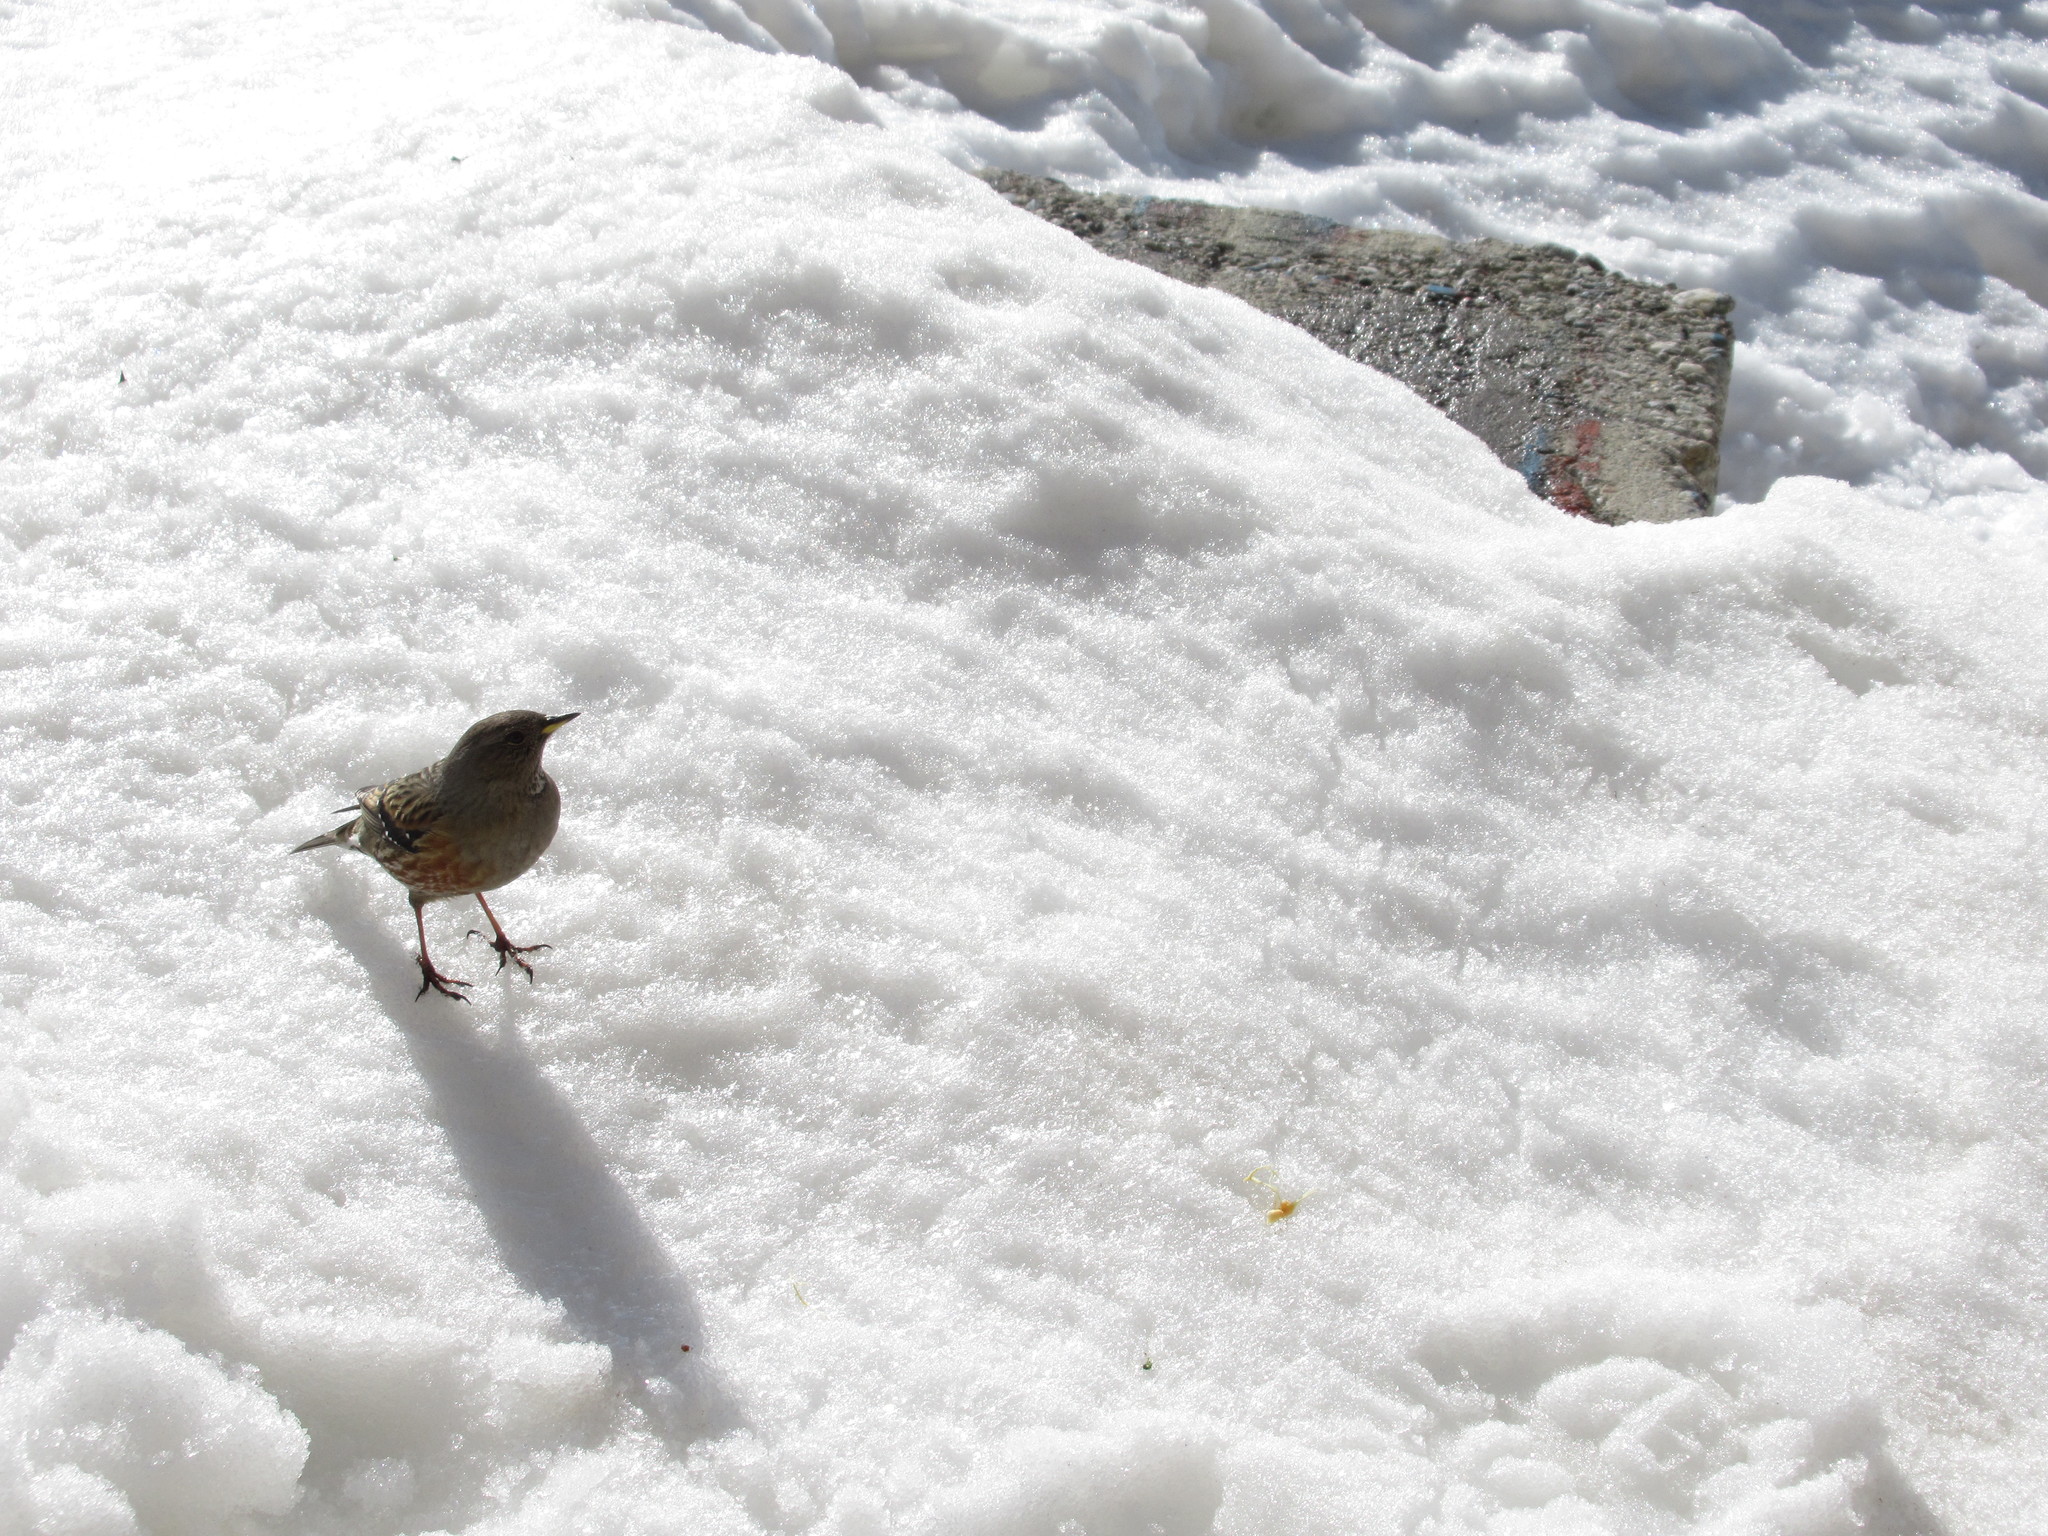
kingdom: Animalia
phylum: Chordata
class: Aves
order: Passeriformes
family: Prunellidae
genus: Prunella
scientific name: Prunella collaris
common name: Alpine accentor
